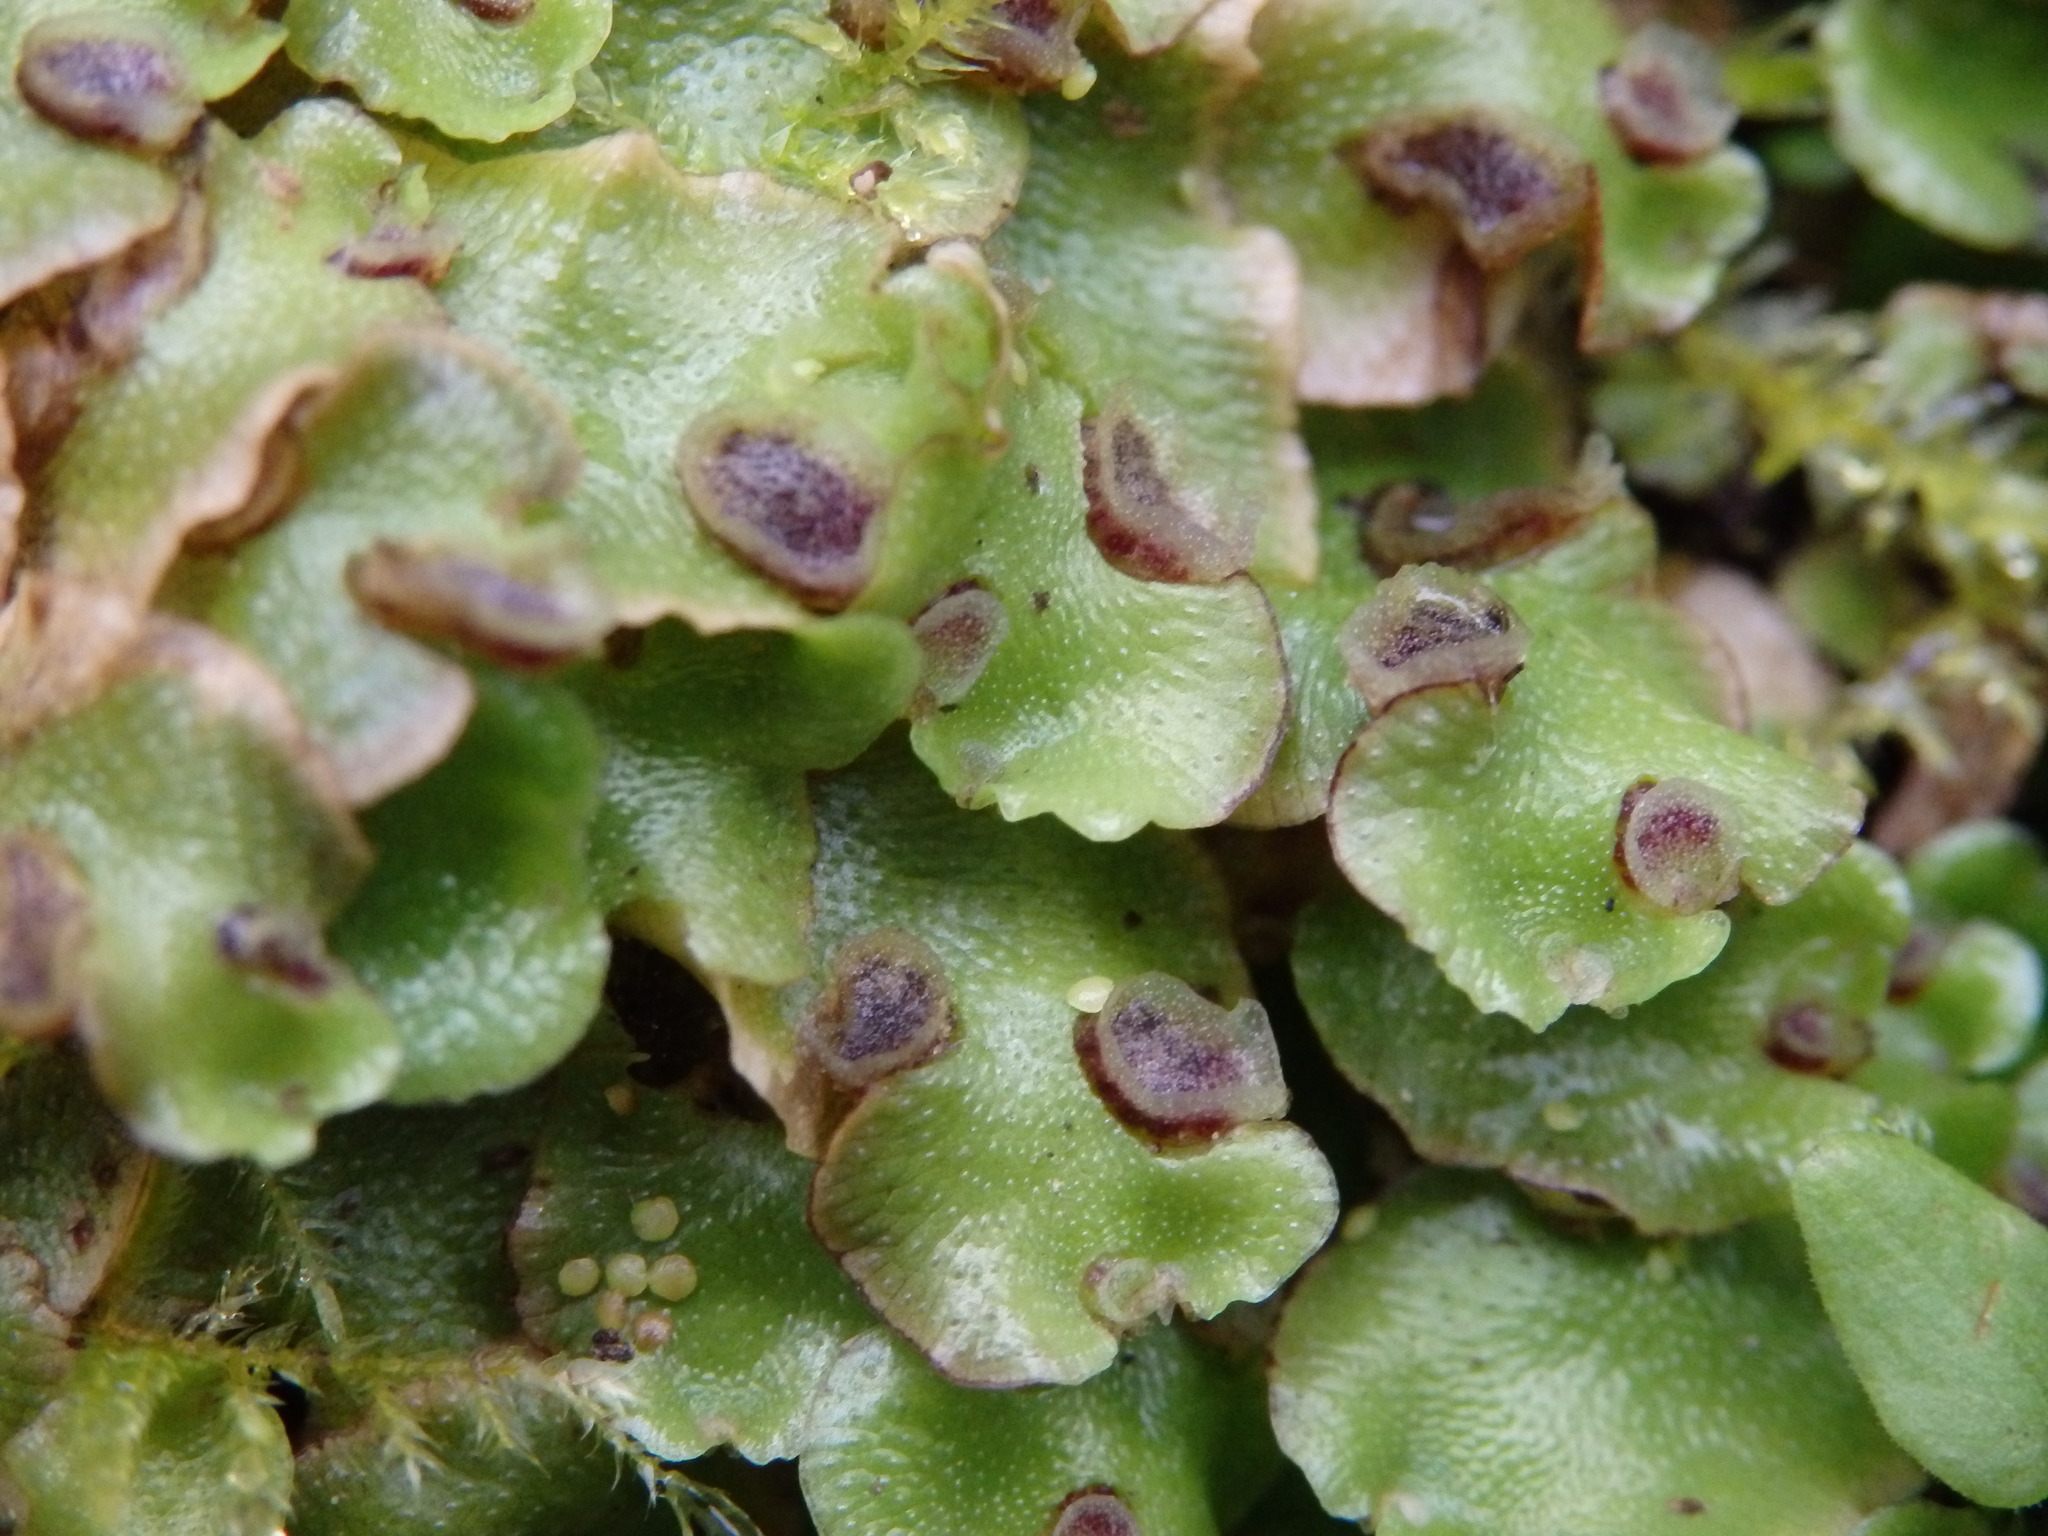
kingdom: Plantae
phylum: Marchantiophyta
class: Marchantiopsida
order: Lunulariales
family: Lunulariaceae
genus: Lunularia
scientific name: Lunularia cruciata
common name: Crescent-cup liverwort
